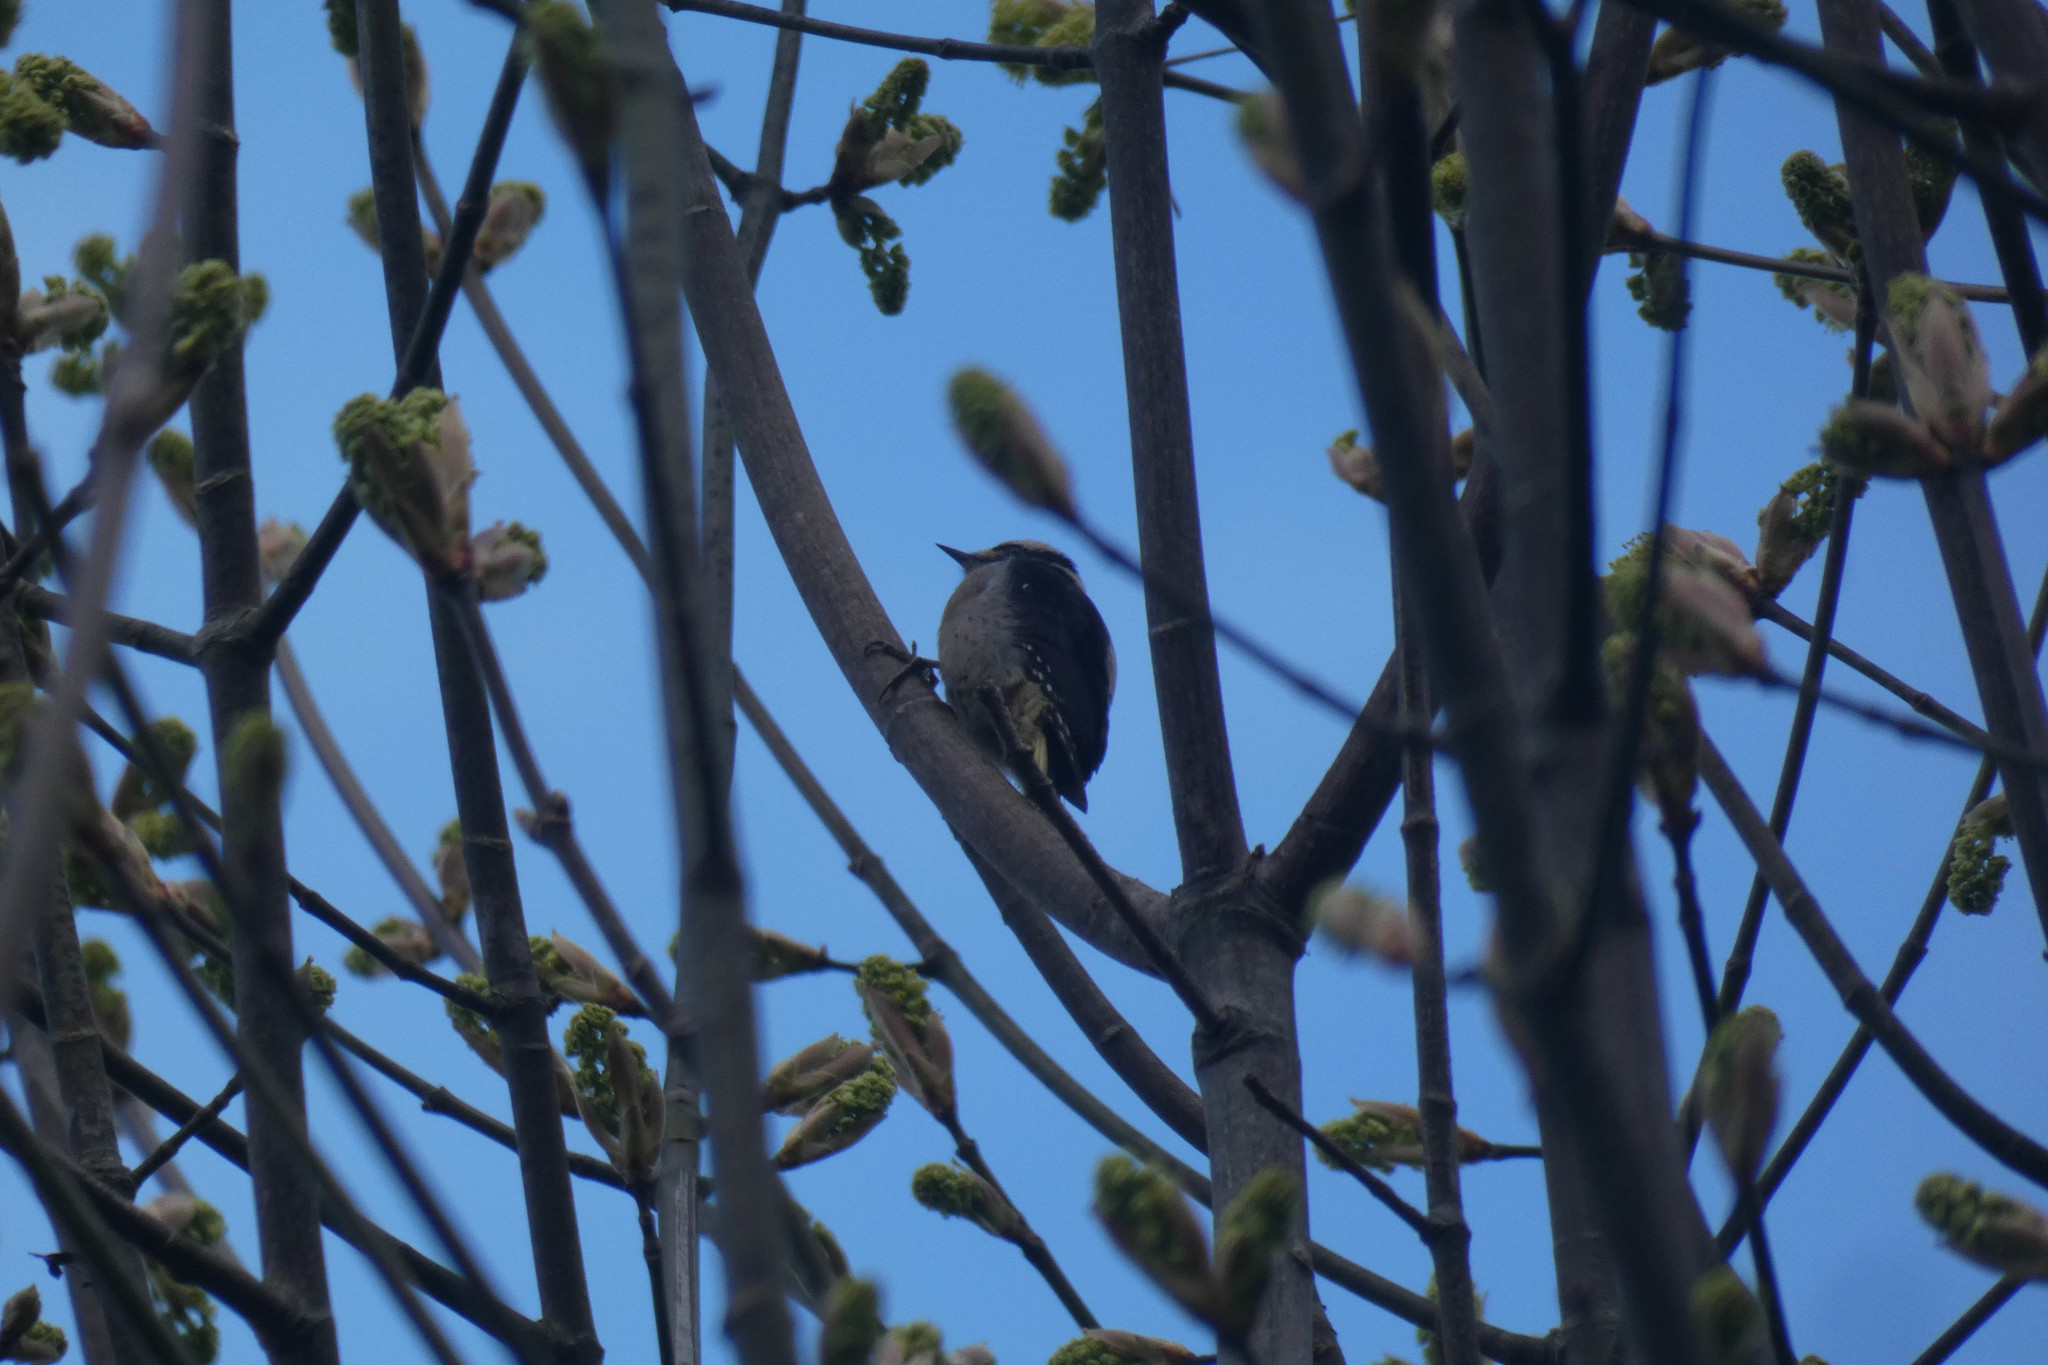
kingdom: Animalia
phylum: Chordata
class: Aves
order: Piciformes
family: Picidae
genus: Dryobates
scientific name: Dryobates pubescens
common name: Downy woodpecker
